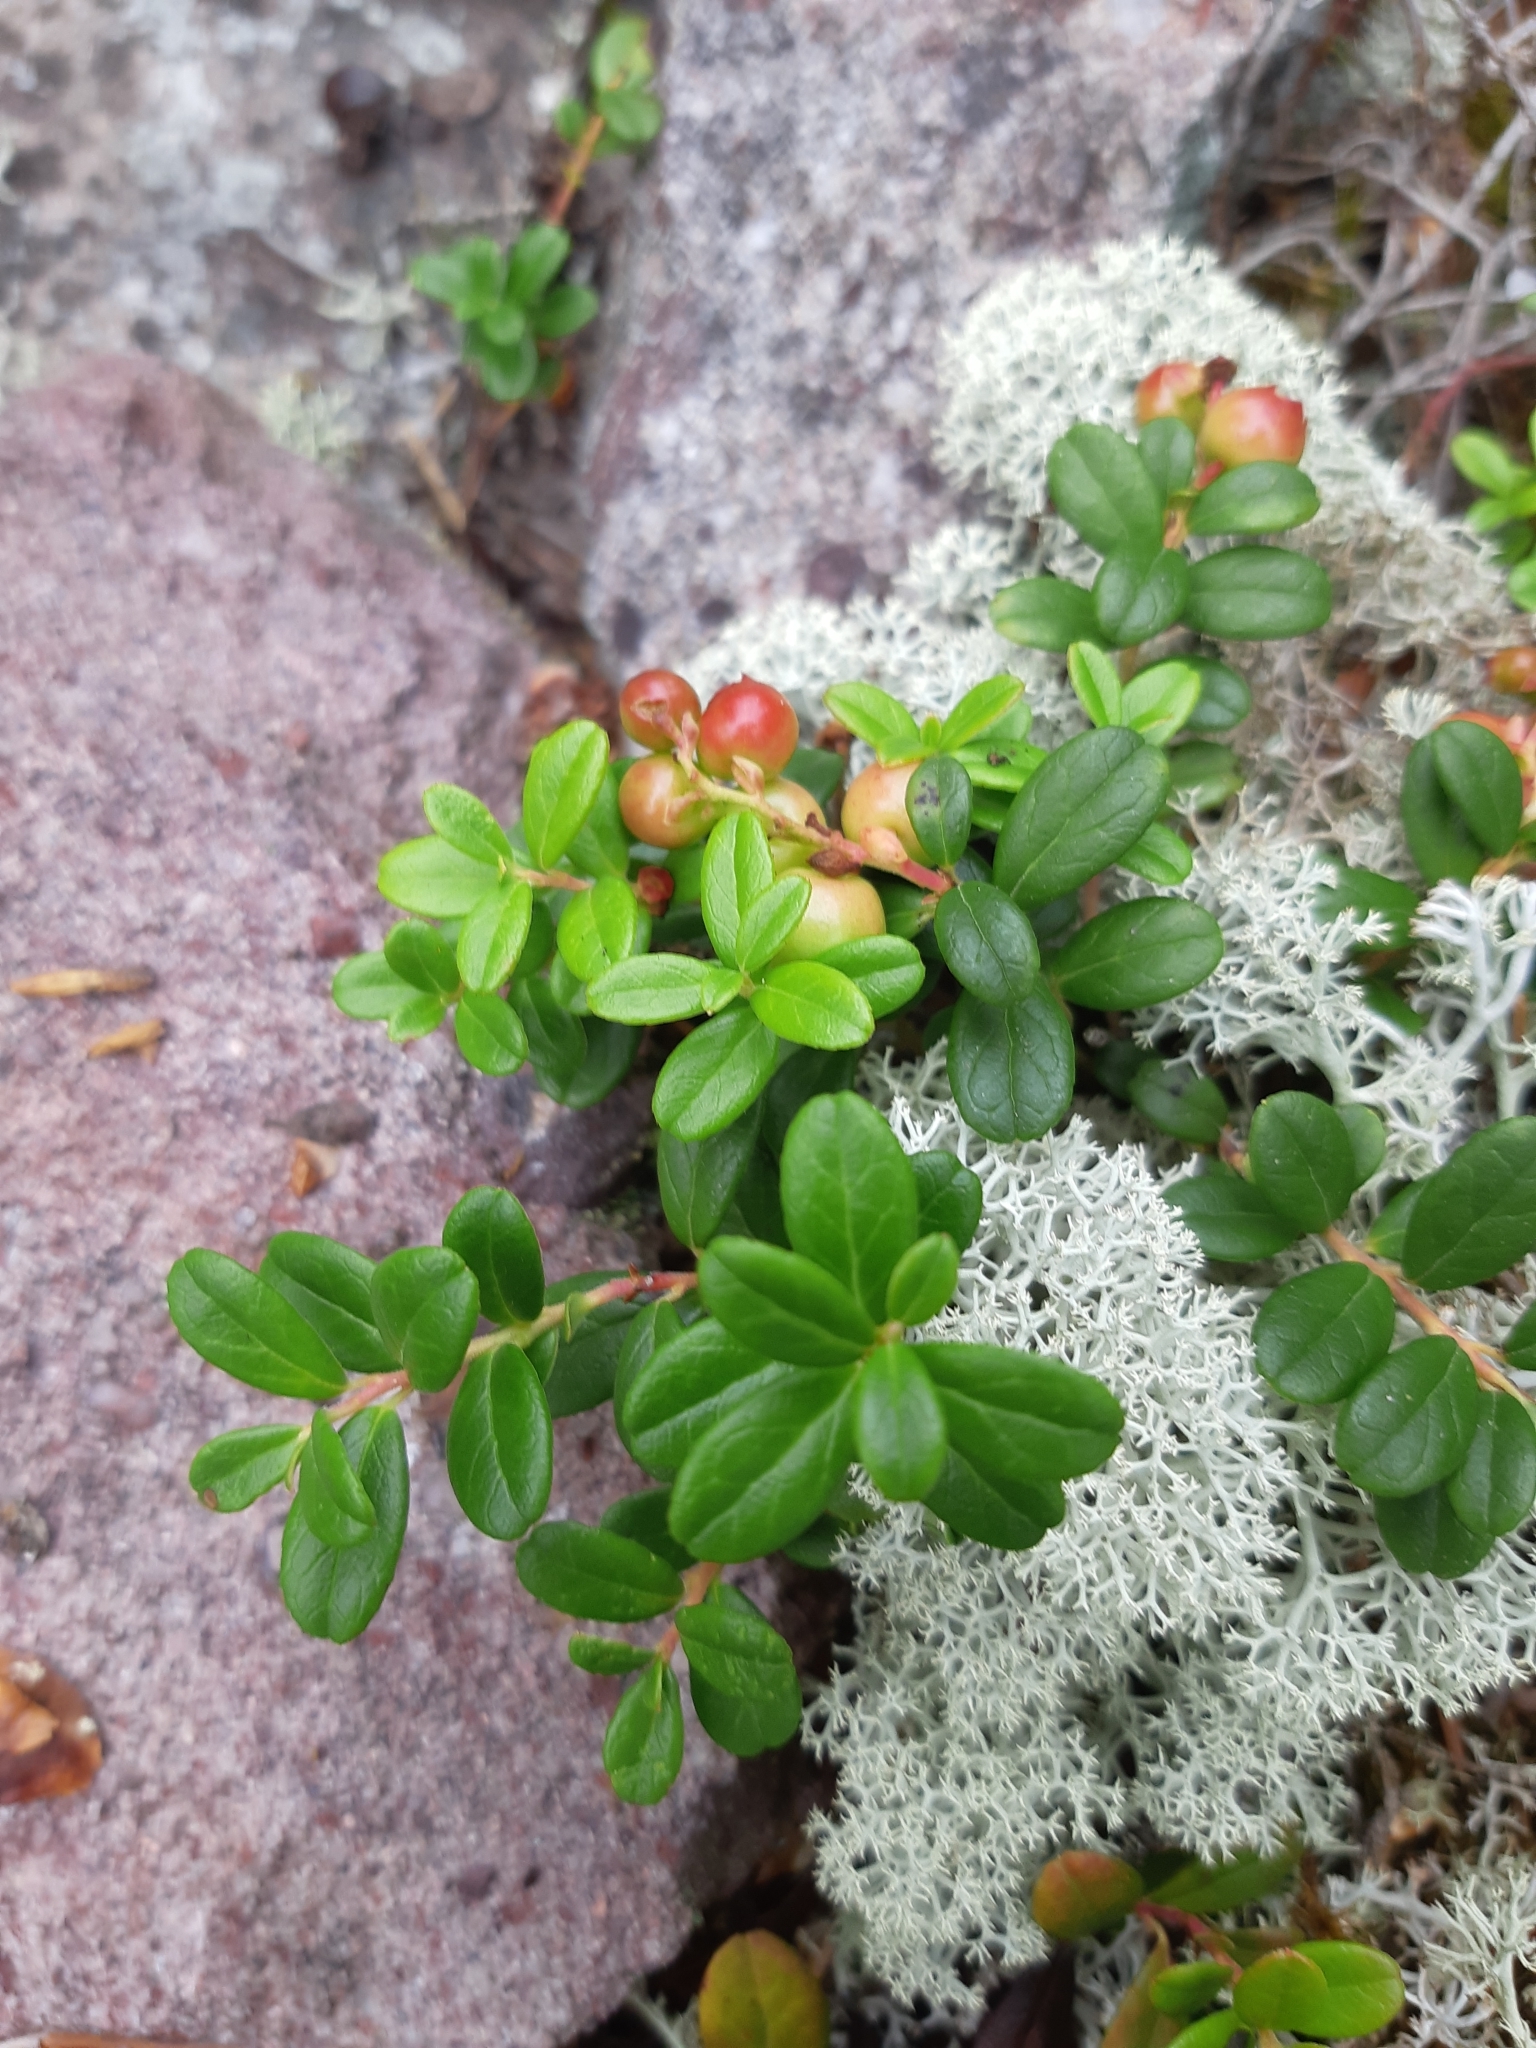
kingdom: Plantae
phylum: Tracheophyta
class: Magnoliopsida
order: Ericales
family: Ericaceae
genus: Vaccinium
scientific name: Vaccinium vitis-idaea
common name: Cowberry
